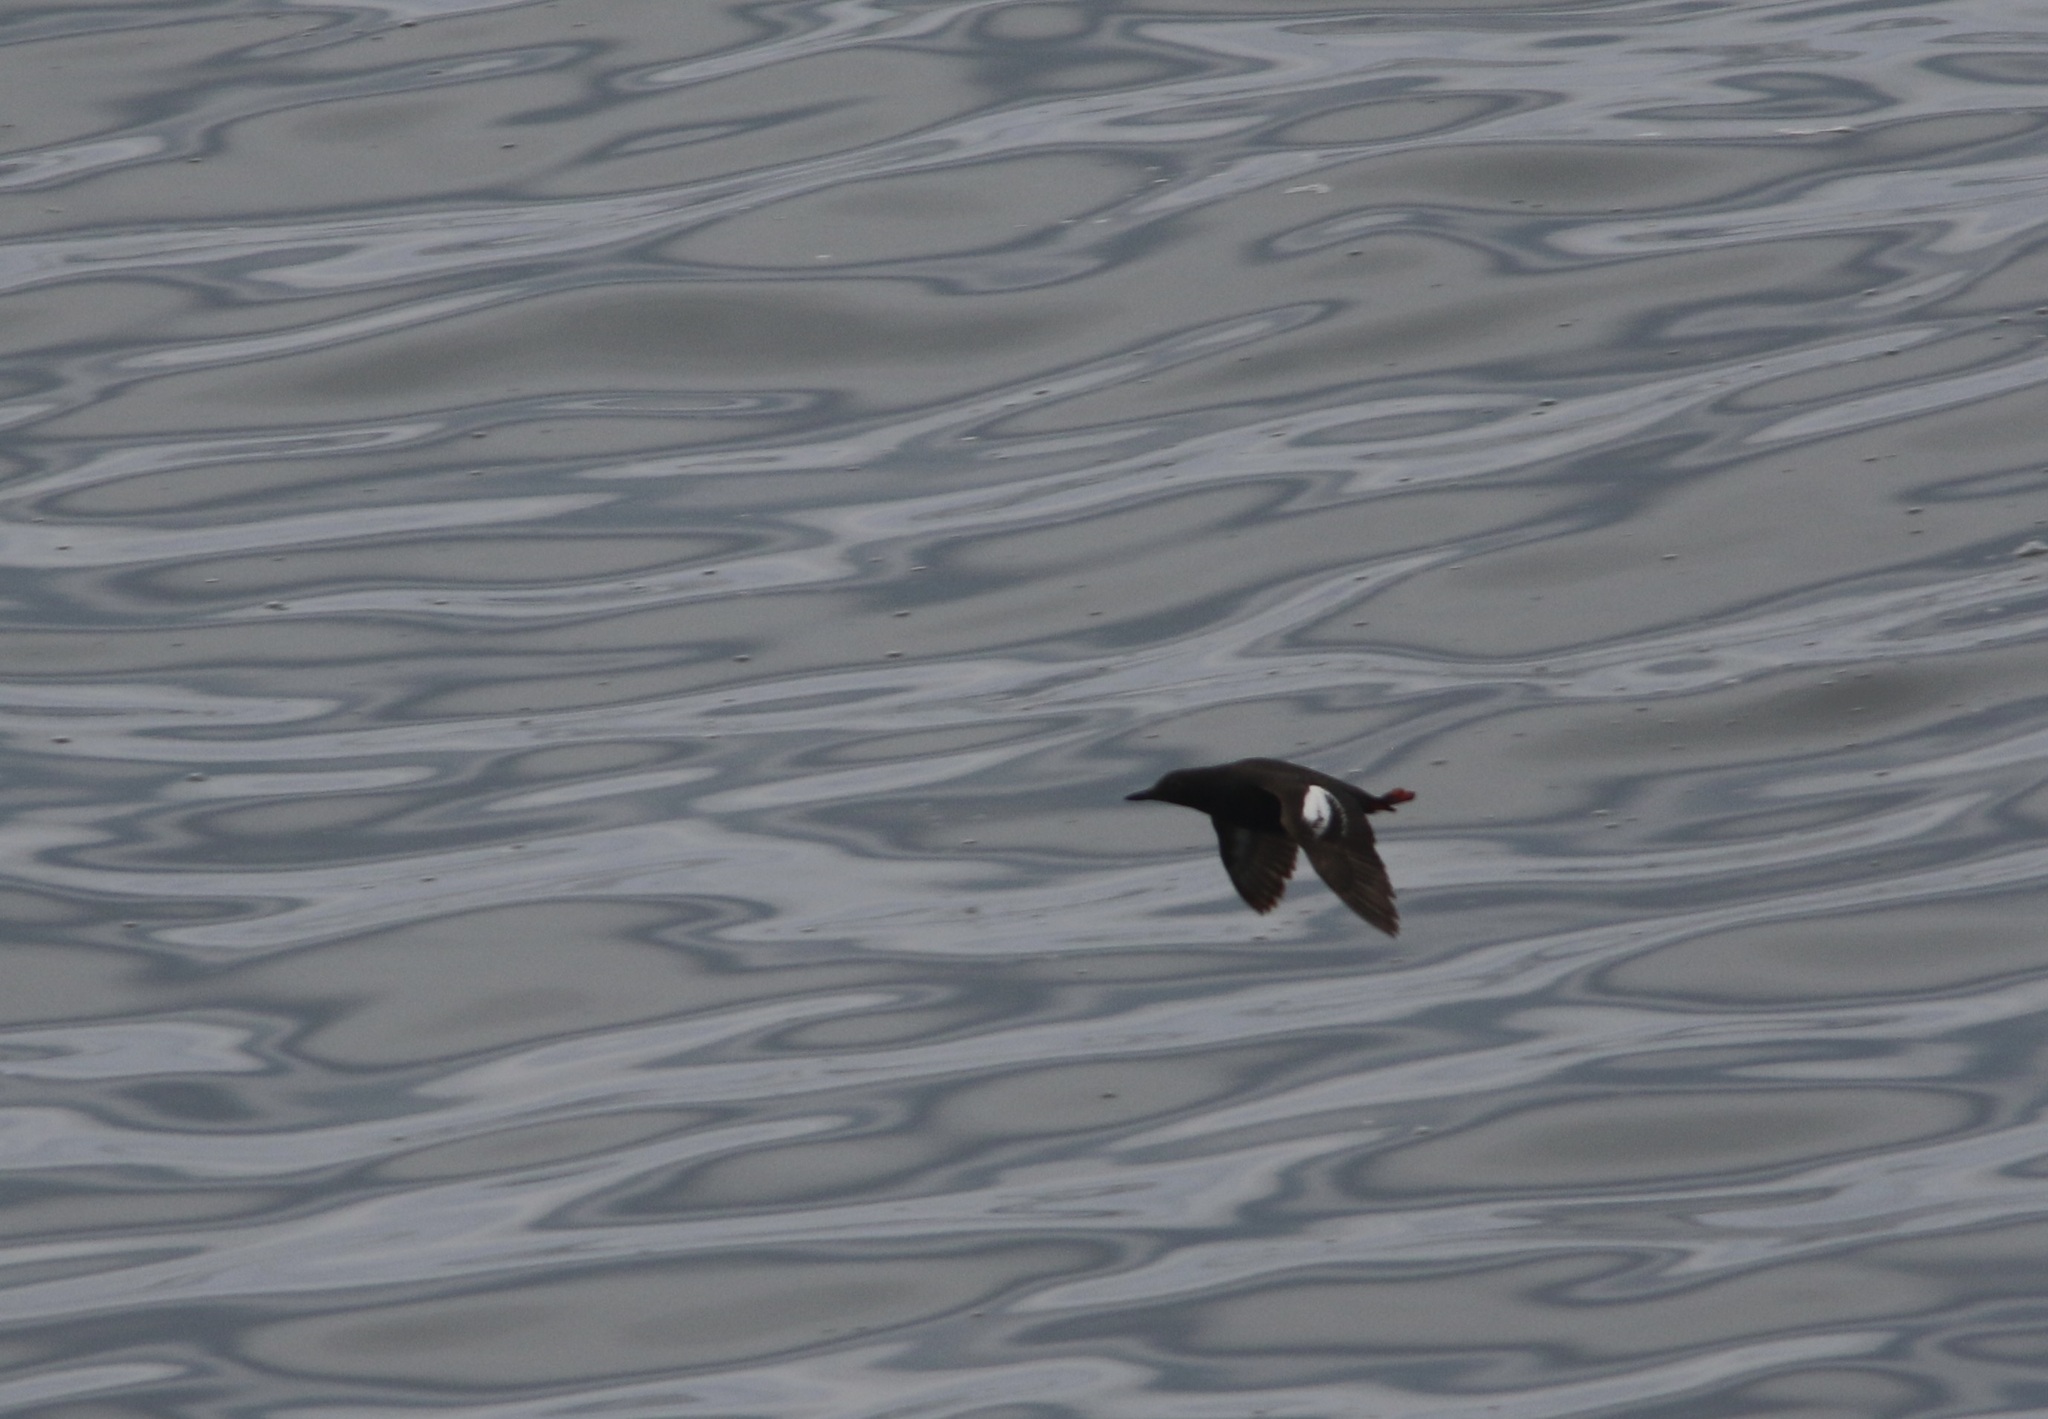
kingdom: Animalia
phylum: Chordata
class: Aves
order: Charadriiformes
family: Alcidae
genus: Cepphus
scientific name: Cepphus columba
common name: Pigeon guillemot
